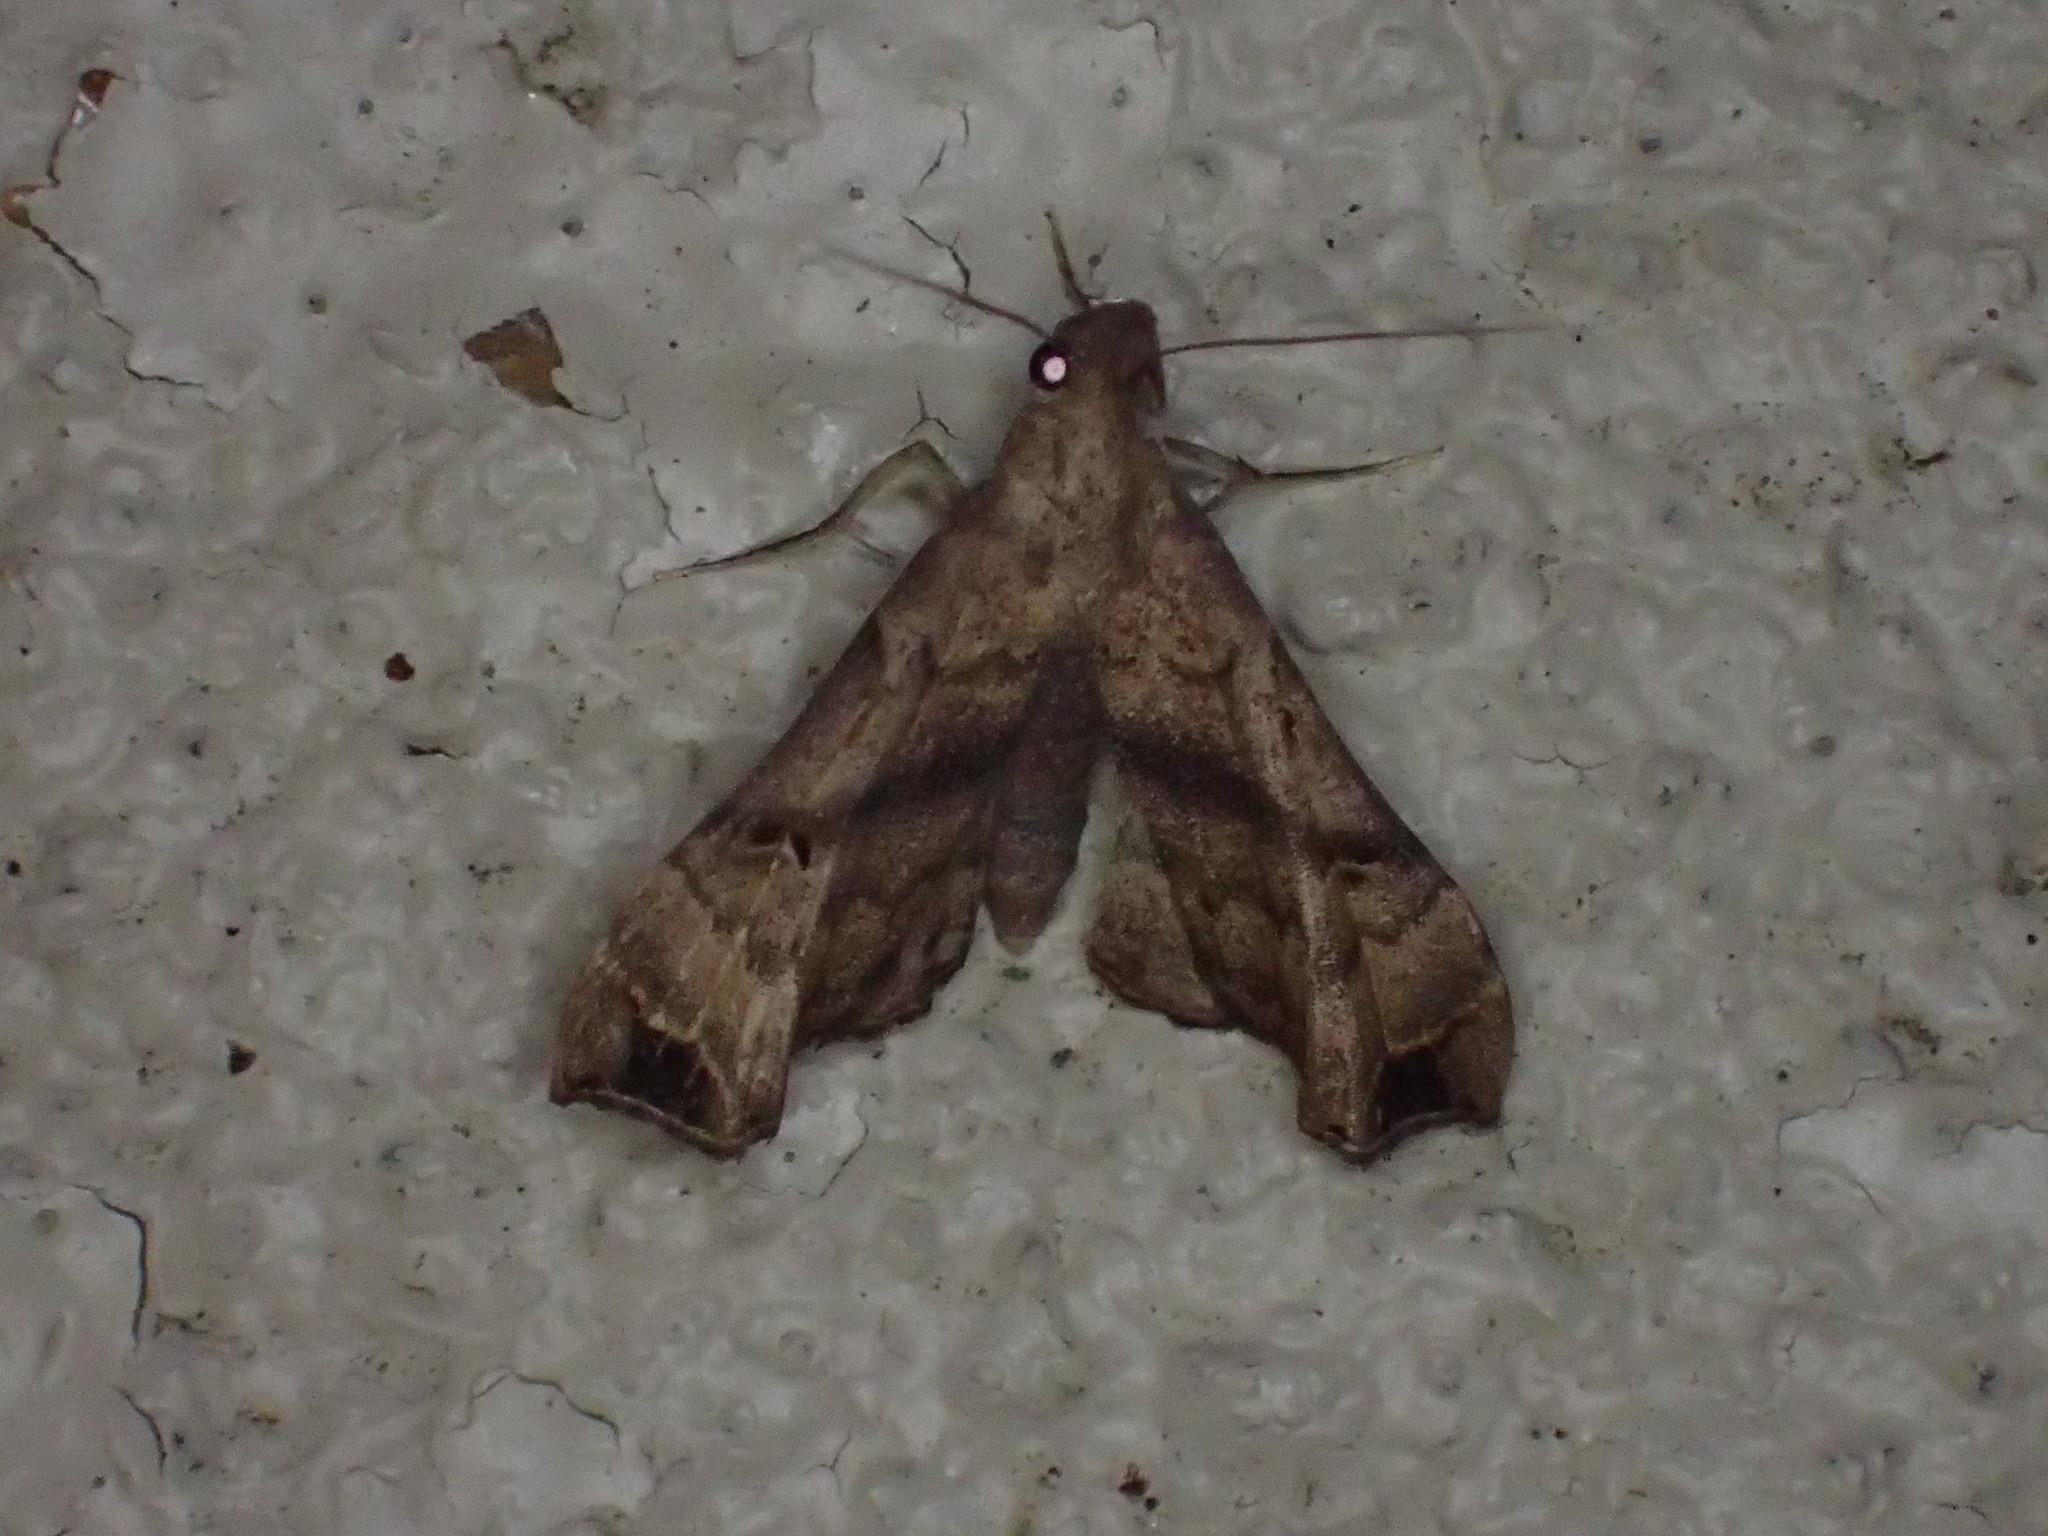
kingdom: Animalia
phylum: Arthropoda
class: Insecta
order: Lepidoptera
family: Erebidae
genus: Palthis
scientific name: Palthis asopialis
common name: Faint-spotted palthis moth
